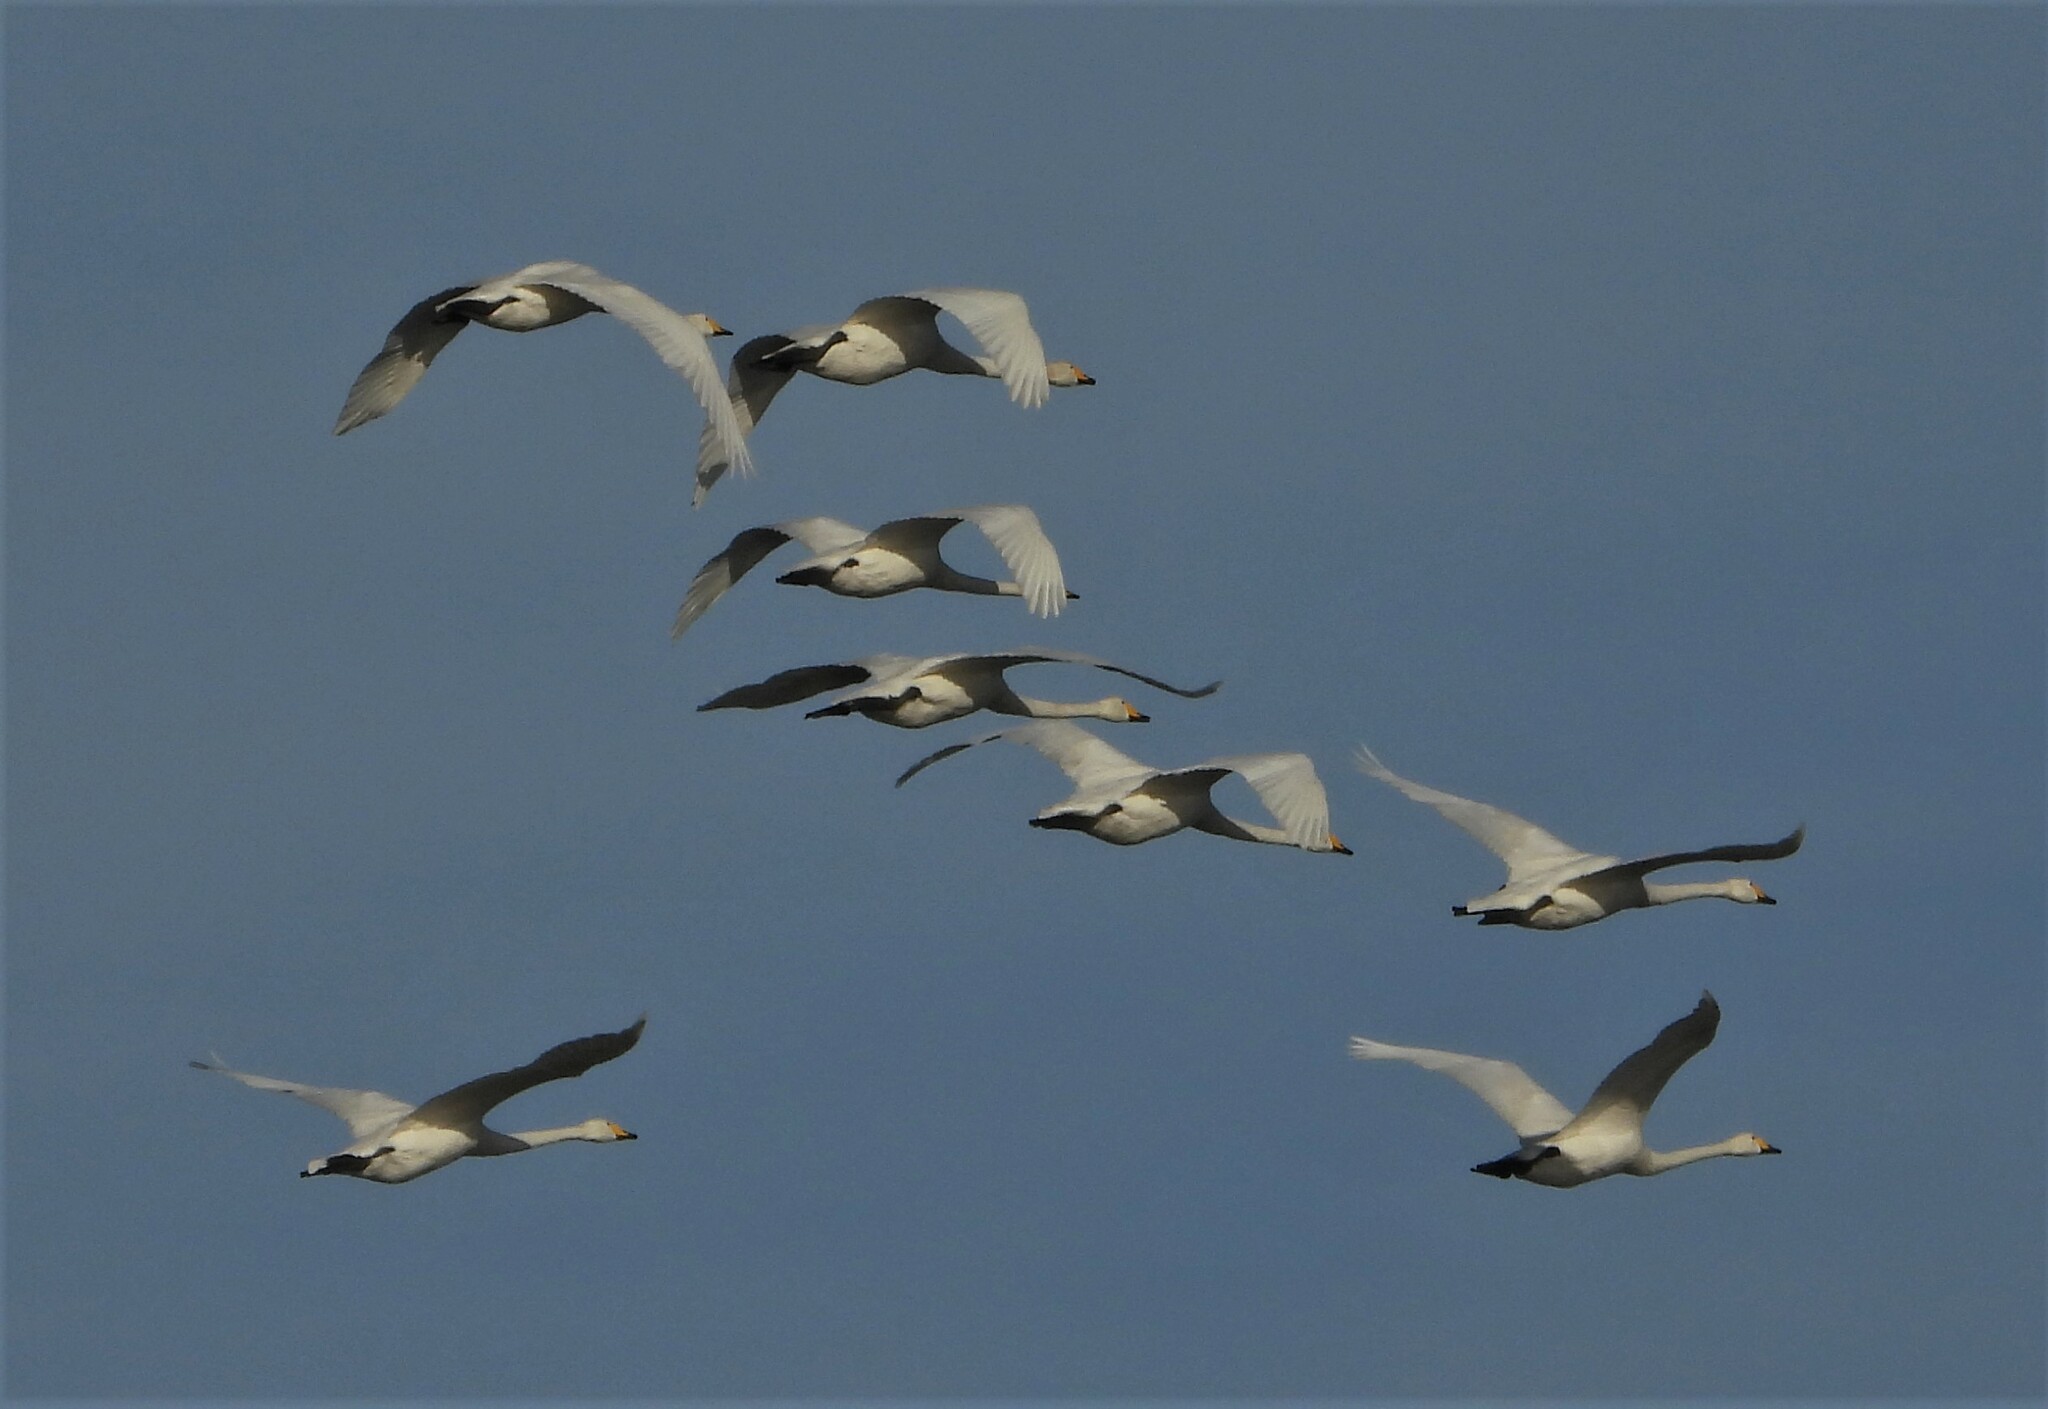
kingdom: Animalia
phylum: Chordata
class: Aves
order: Anseriformes
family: Anatidae
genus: Cygnus
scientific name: Cygnus cygnus
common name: Whooper swan
